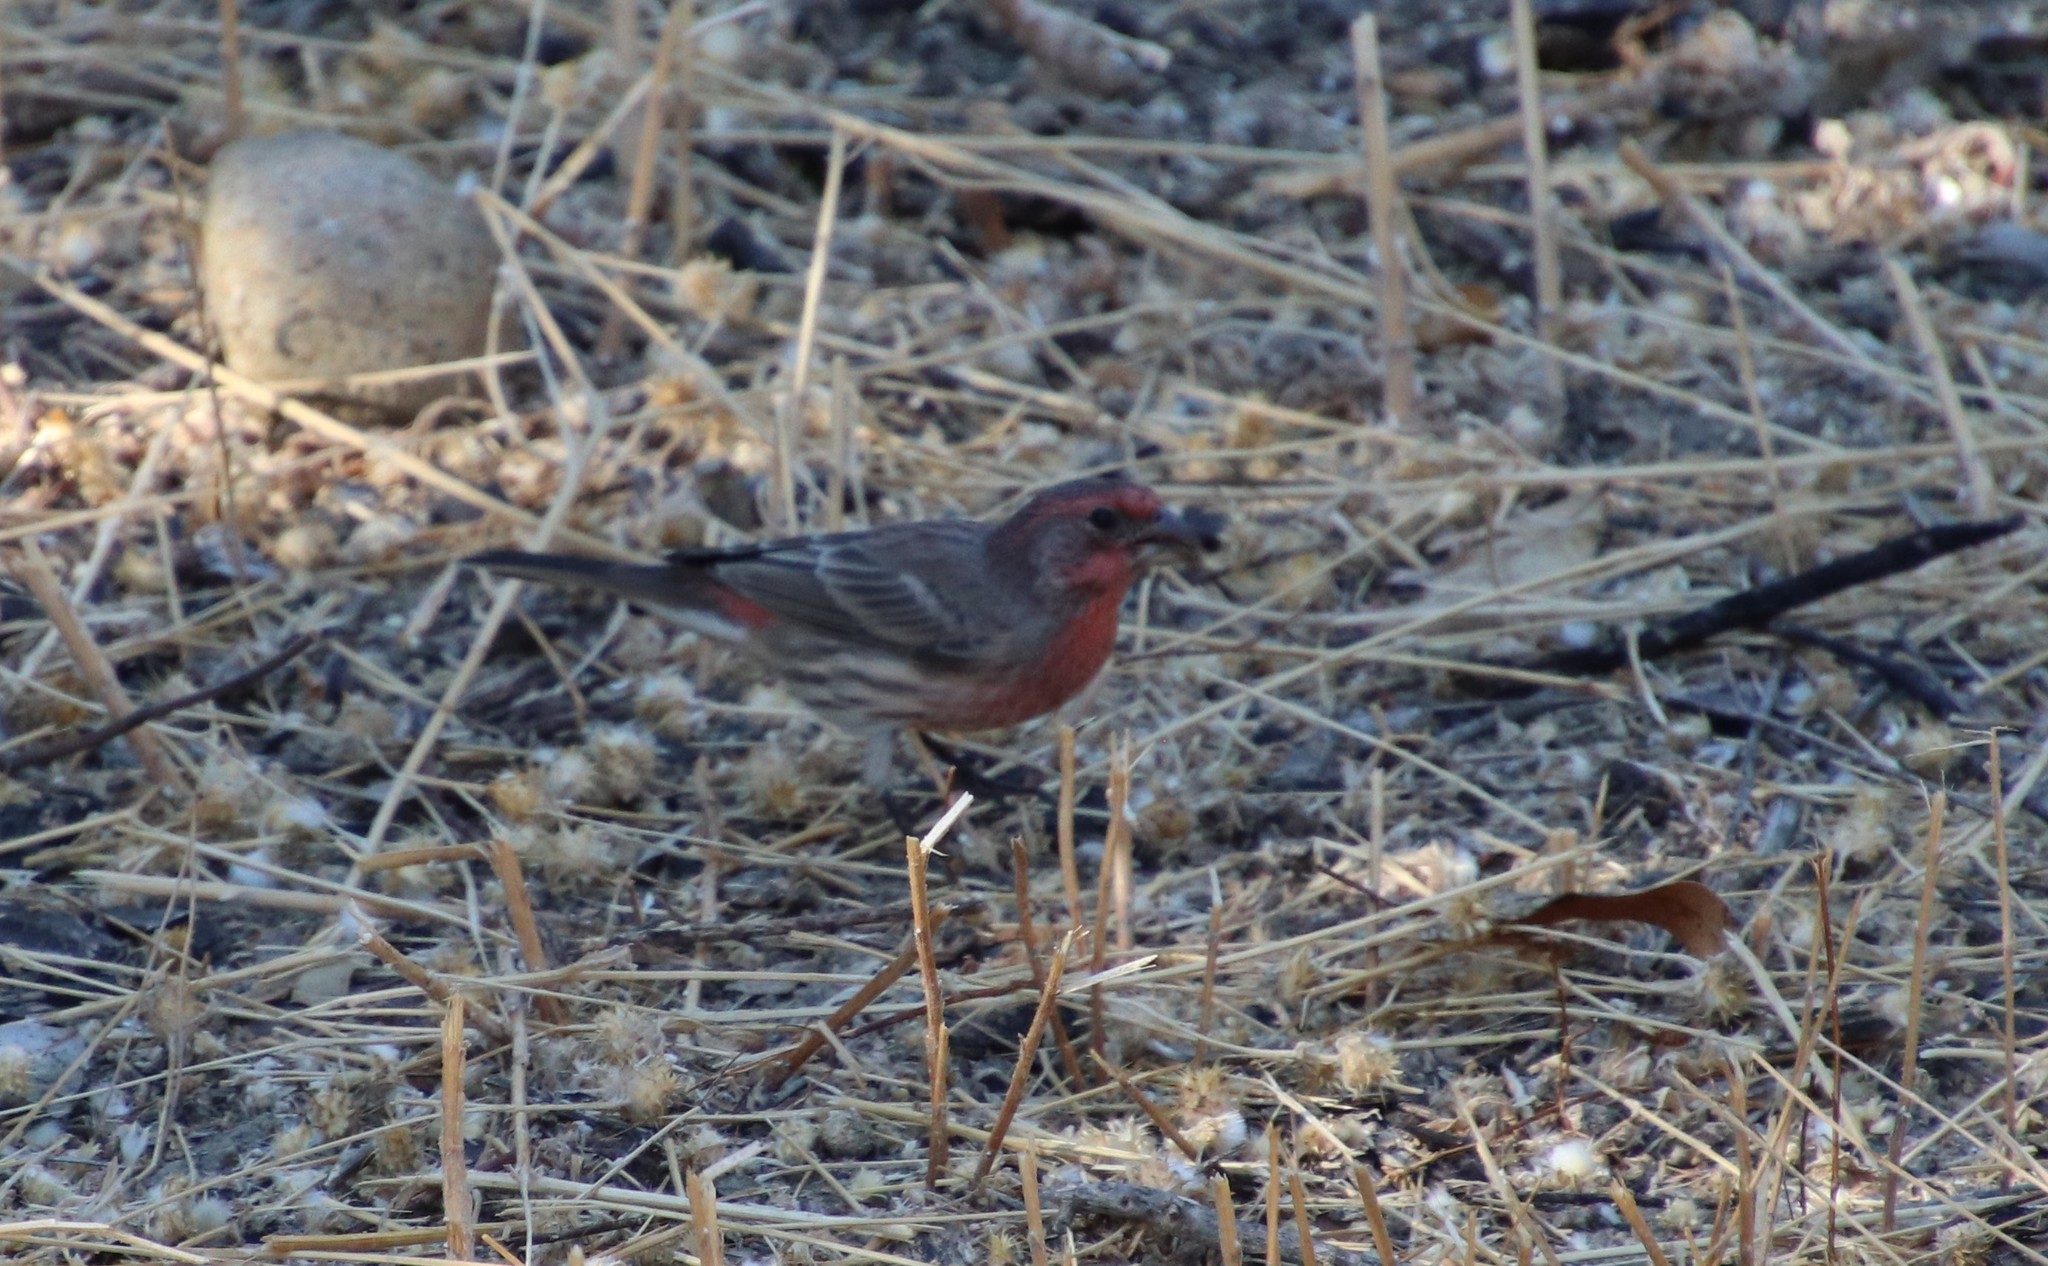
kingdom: Animalia
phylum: Chordata
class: Aves
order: Passeriformes
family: Fringillidae
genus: Haemorhous
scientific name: Haemorhous mexicanus
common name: House finch
